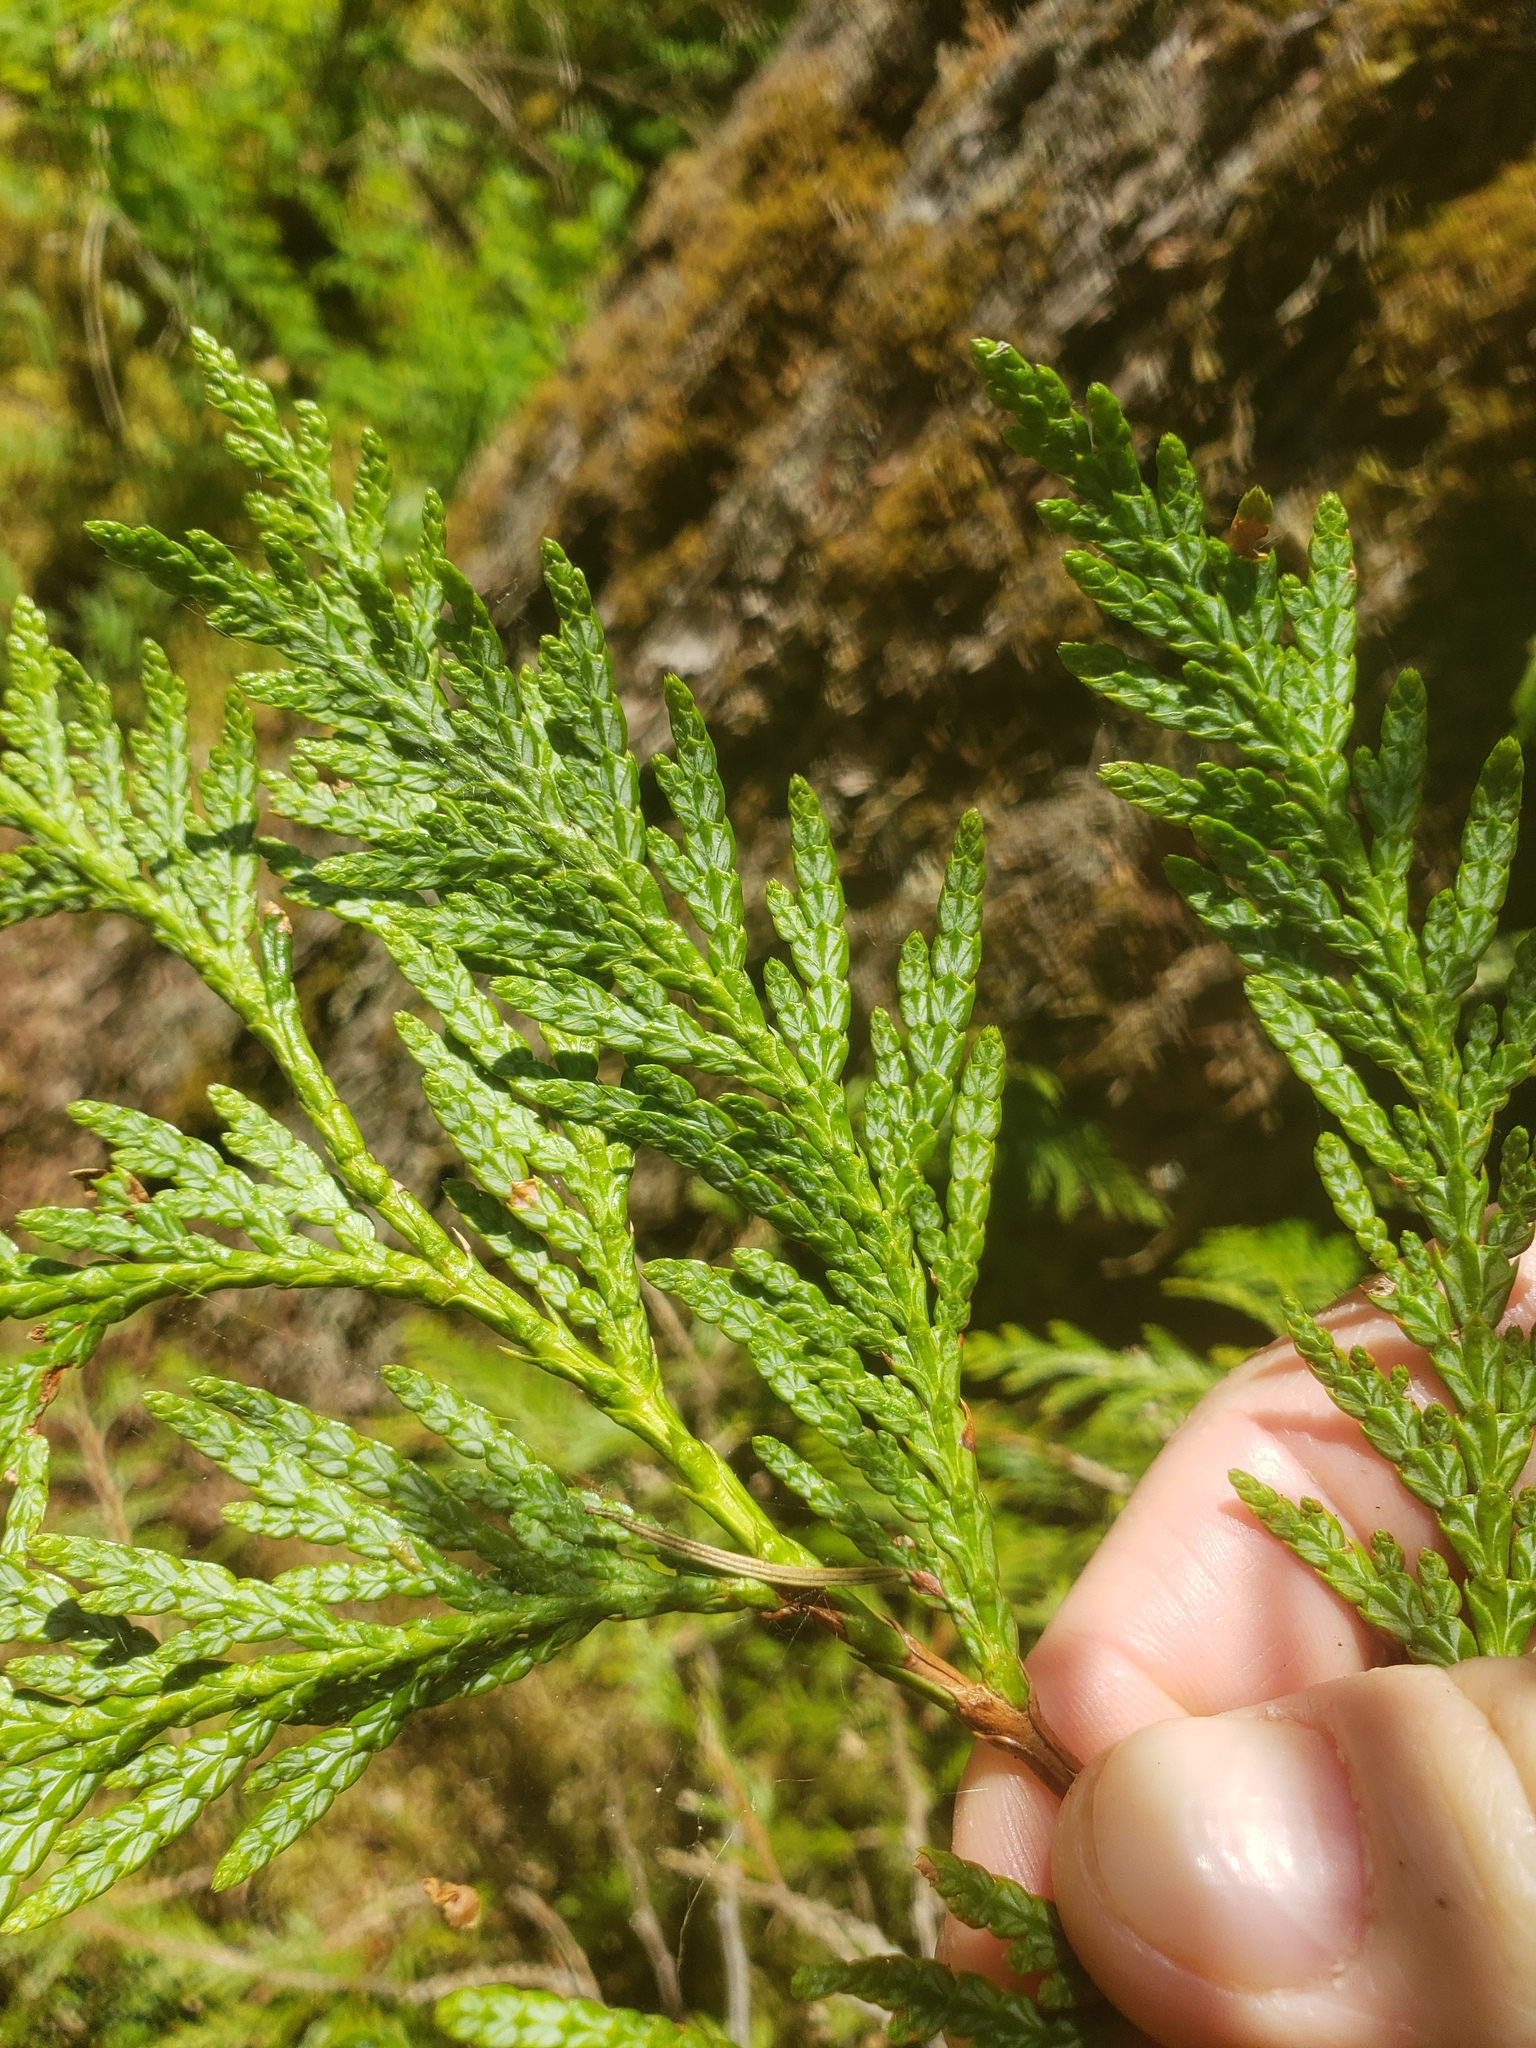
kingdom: Plantae
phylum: Tracheophyta
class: Pinopsida
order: Pinales
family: Cupressaceae
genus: Thuja
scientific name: Thuja plicata
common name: Western red-cedar
